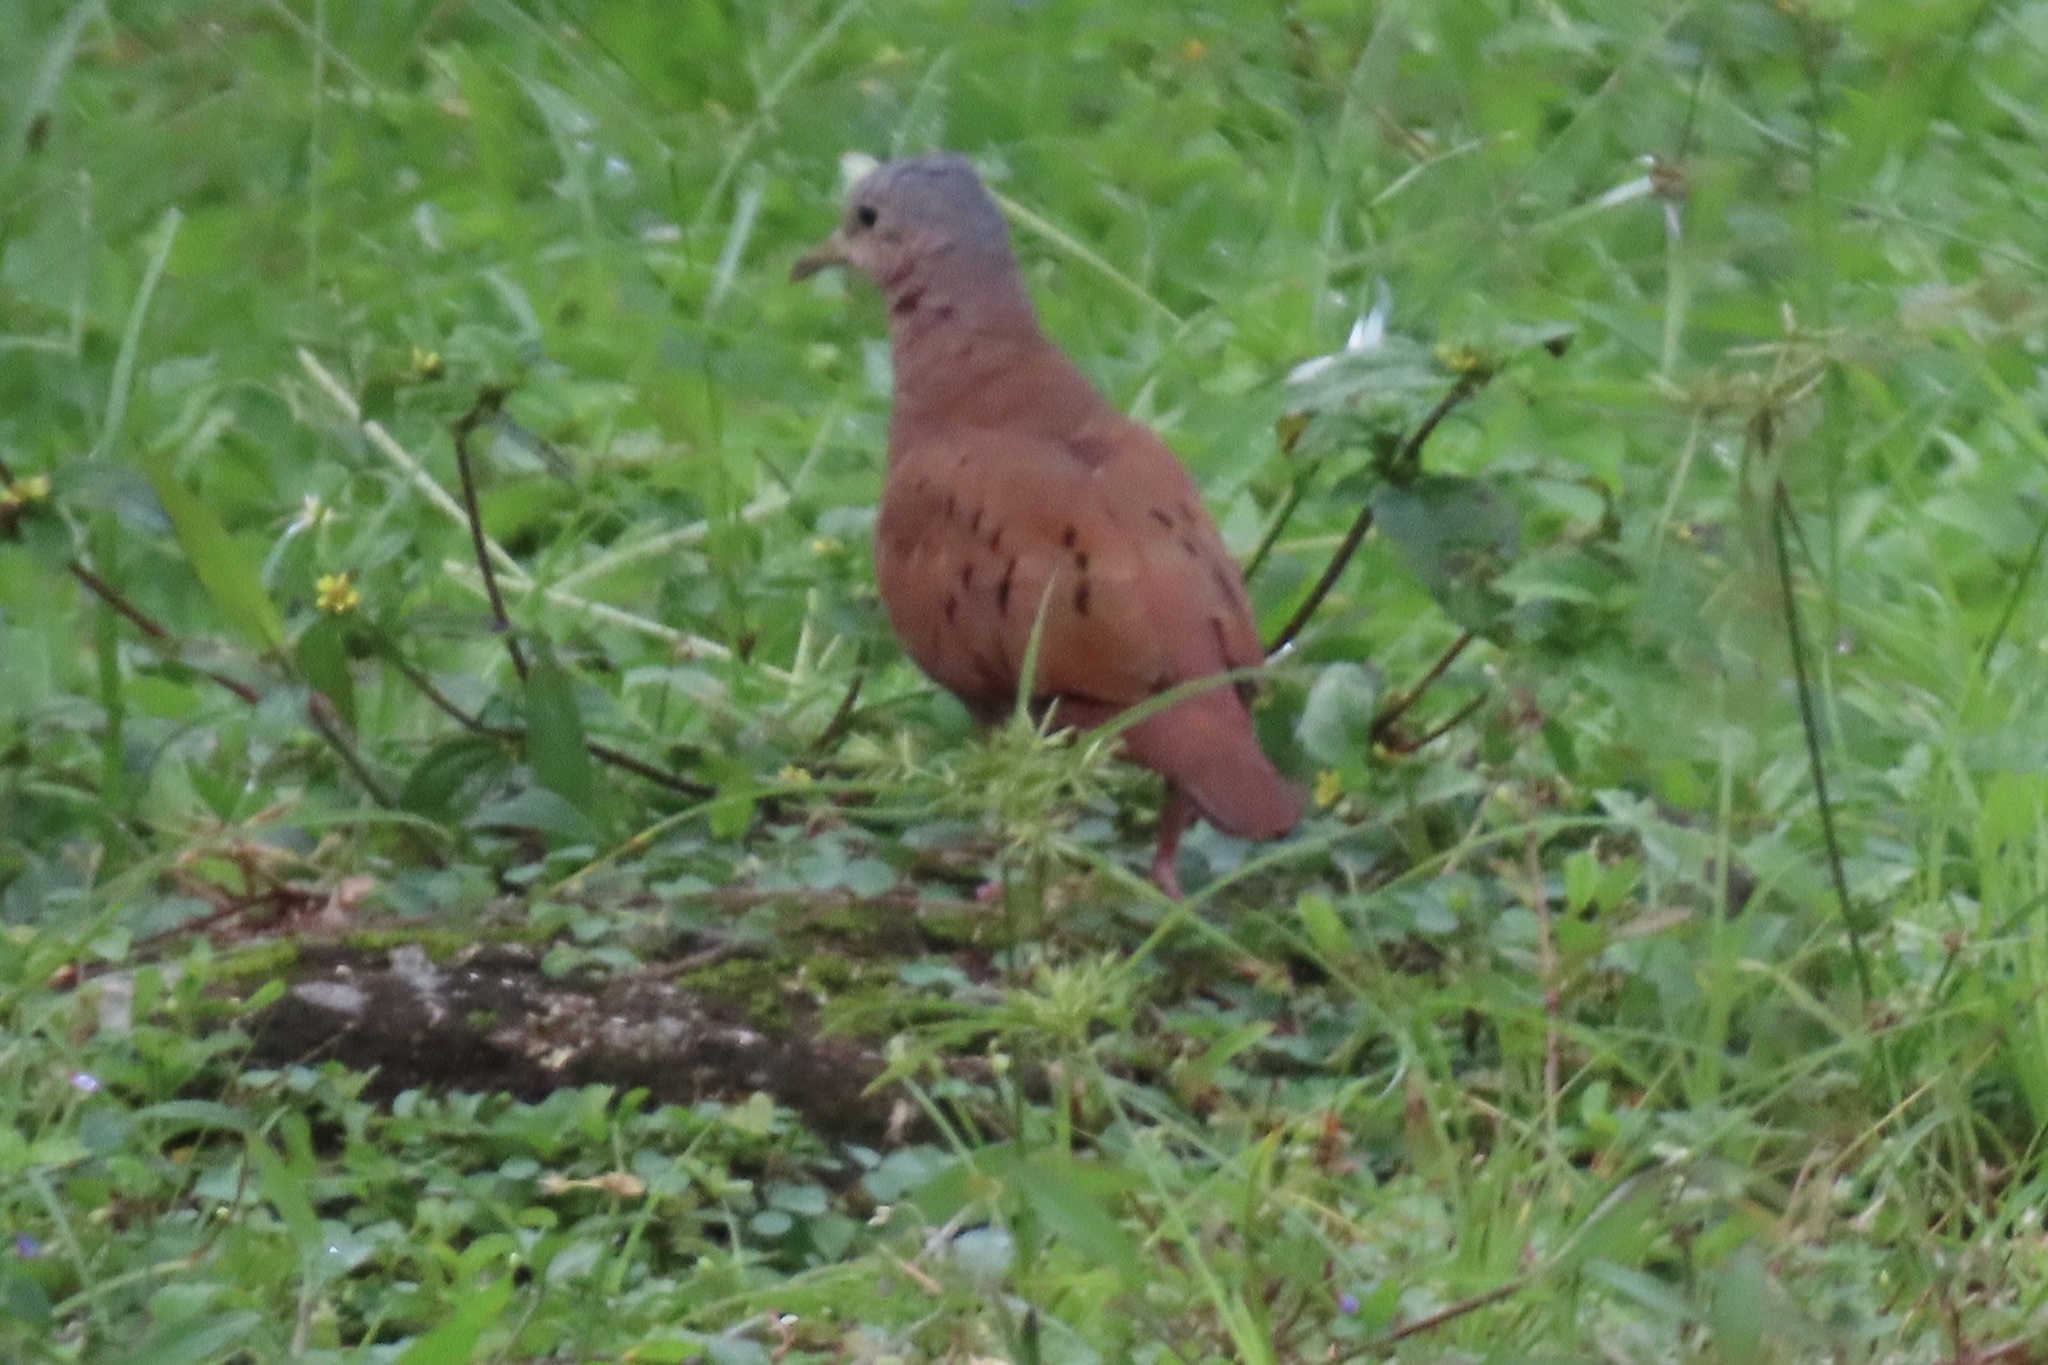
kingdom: Animalia
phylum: Chordata
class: Aves
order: Columbiformes
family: Columbidae
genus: Columbina
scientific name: Columbina talpacoti
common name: Ruddy ground dove
